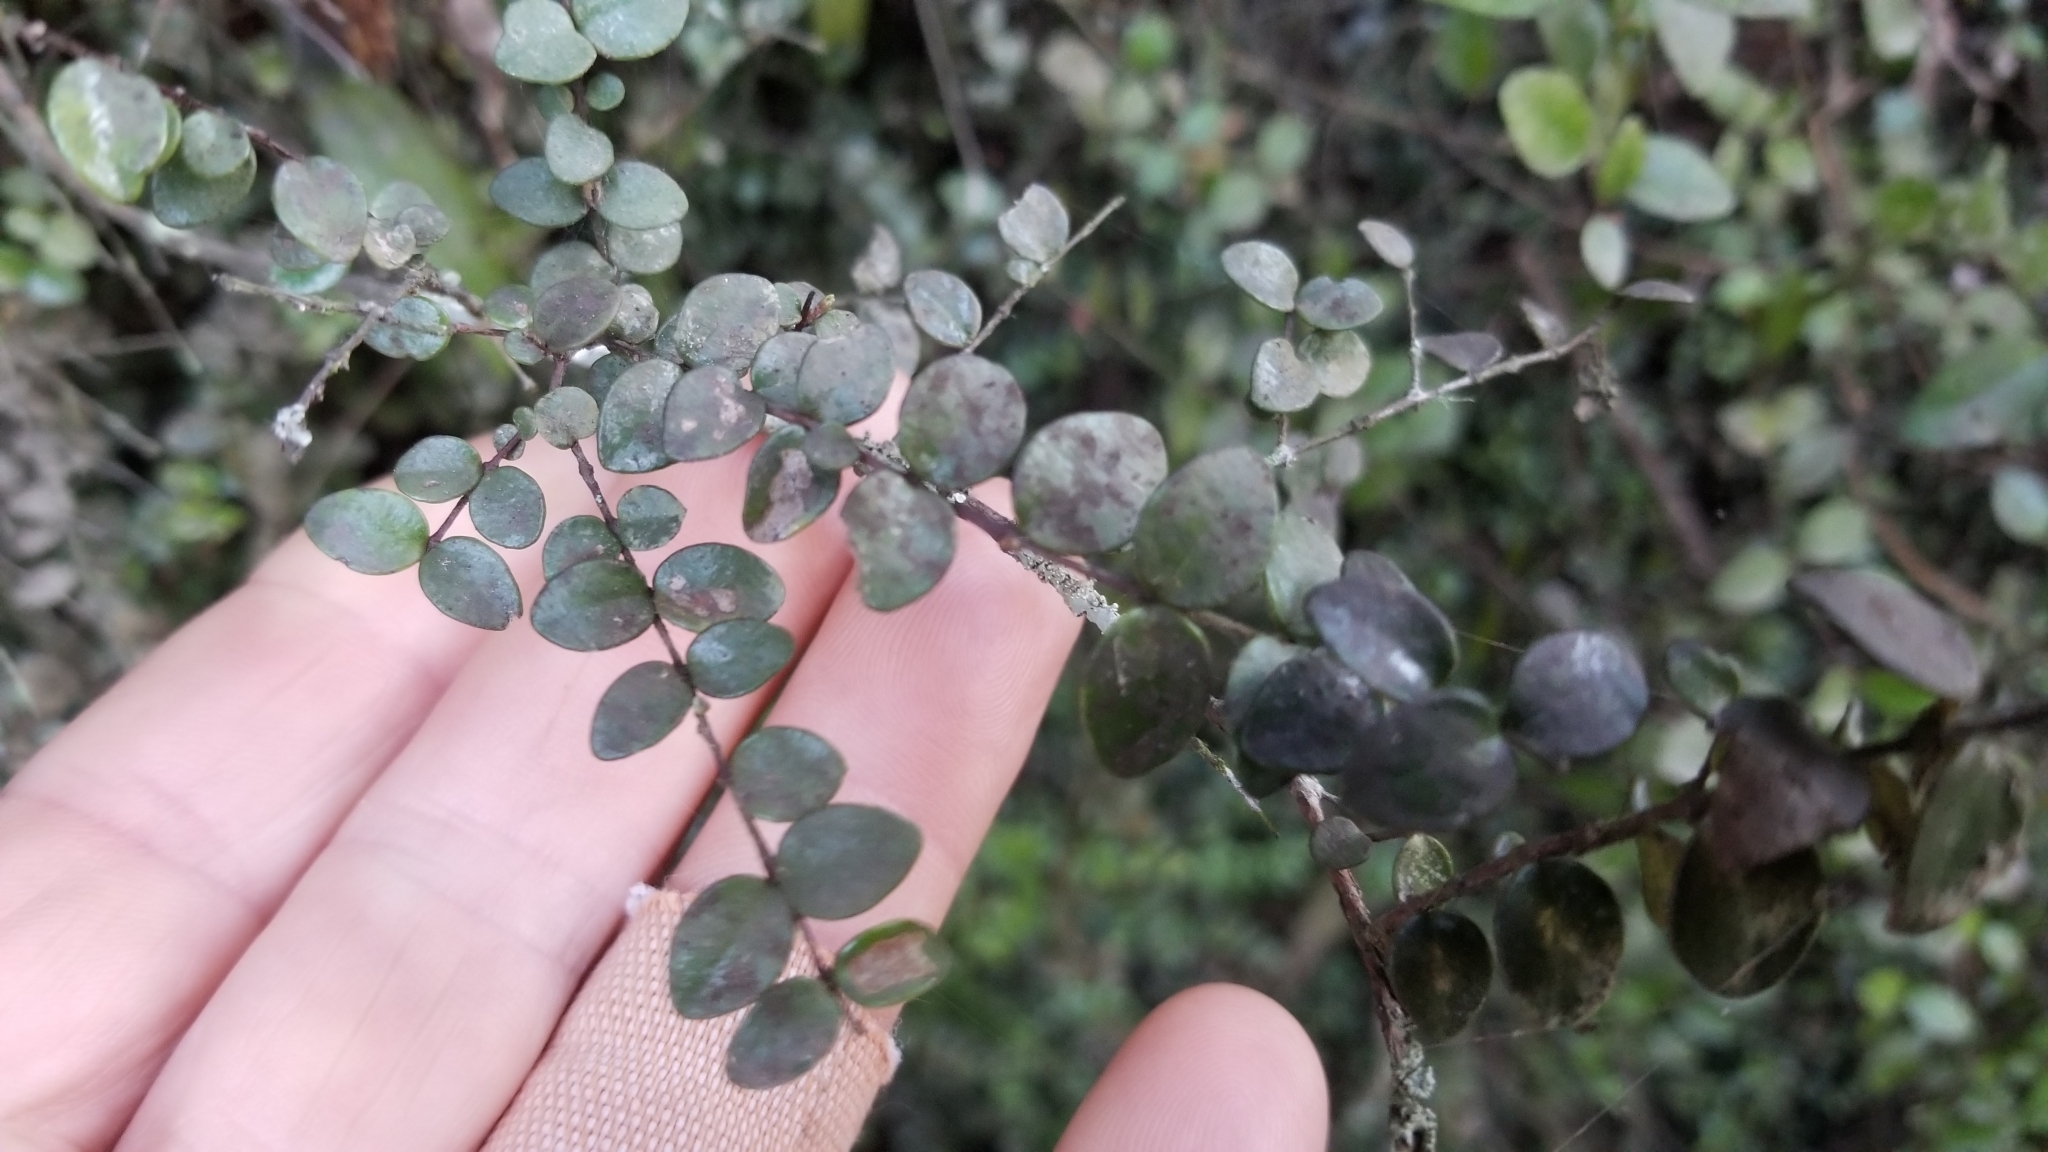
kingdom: Plantae
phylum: Tracheophyta
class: Magnoliopsida
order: Myrtales
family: Myrtaceae
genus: Metrosideros
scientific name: Metrosideros diffusa
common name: Small ratavine
